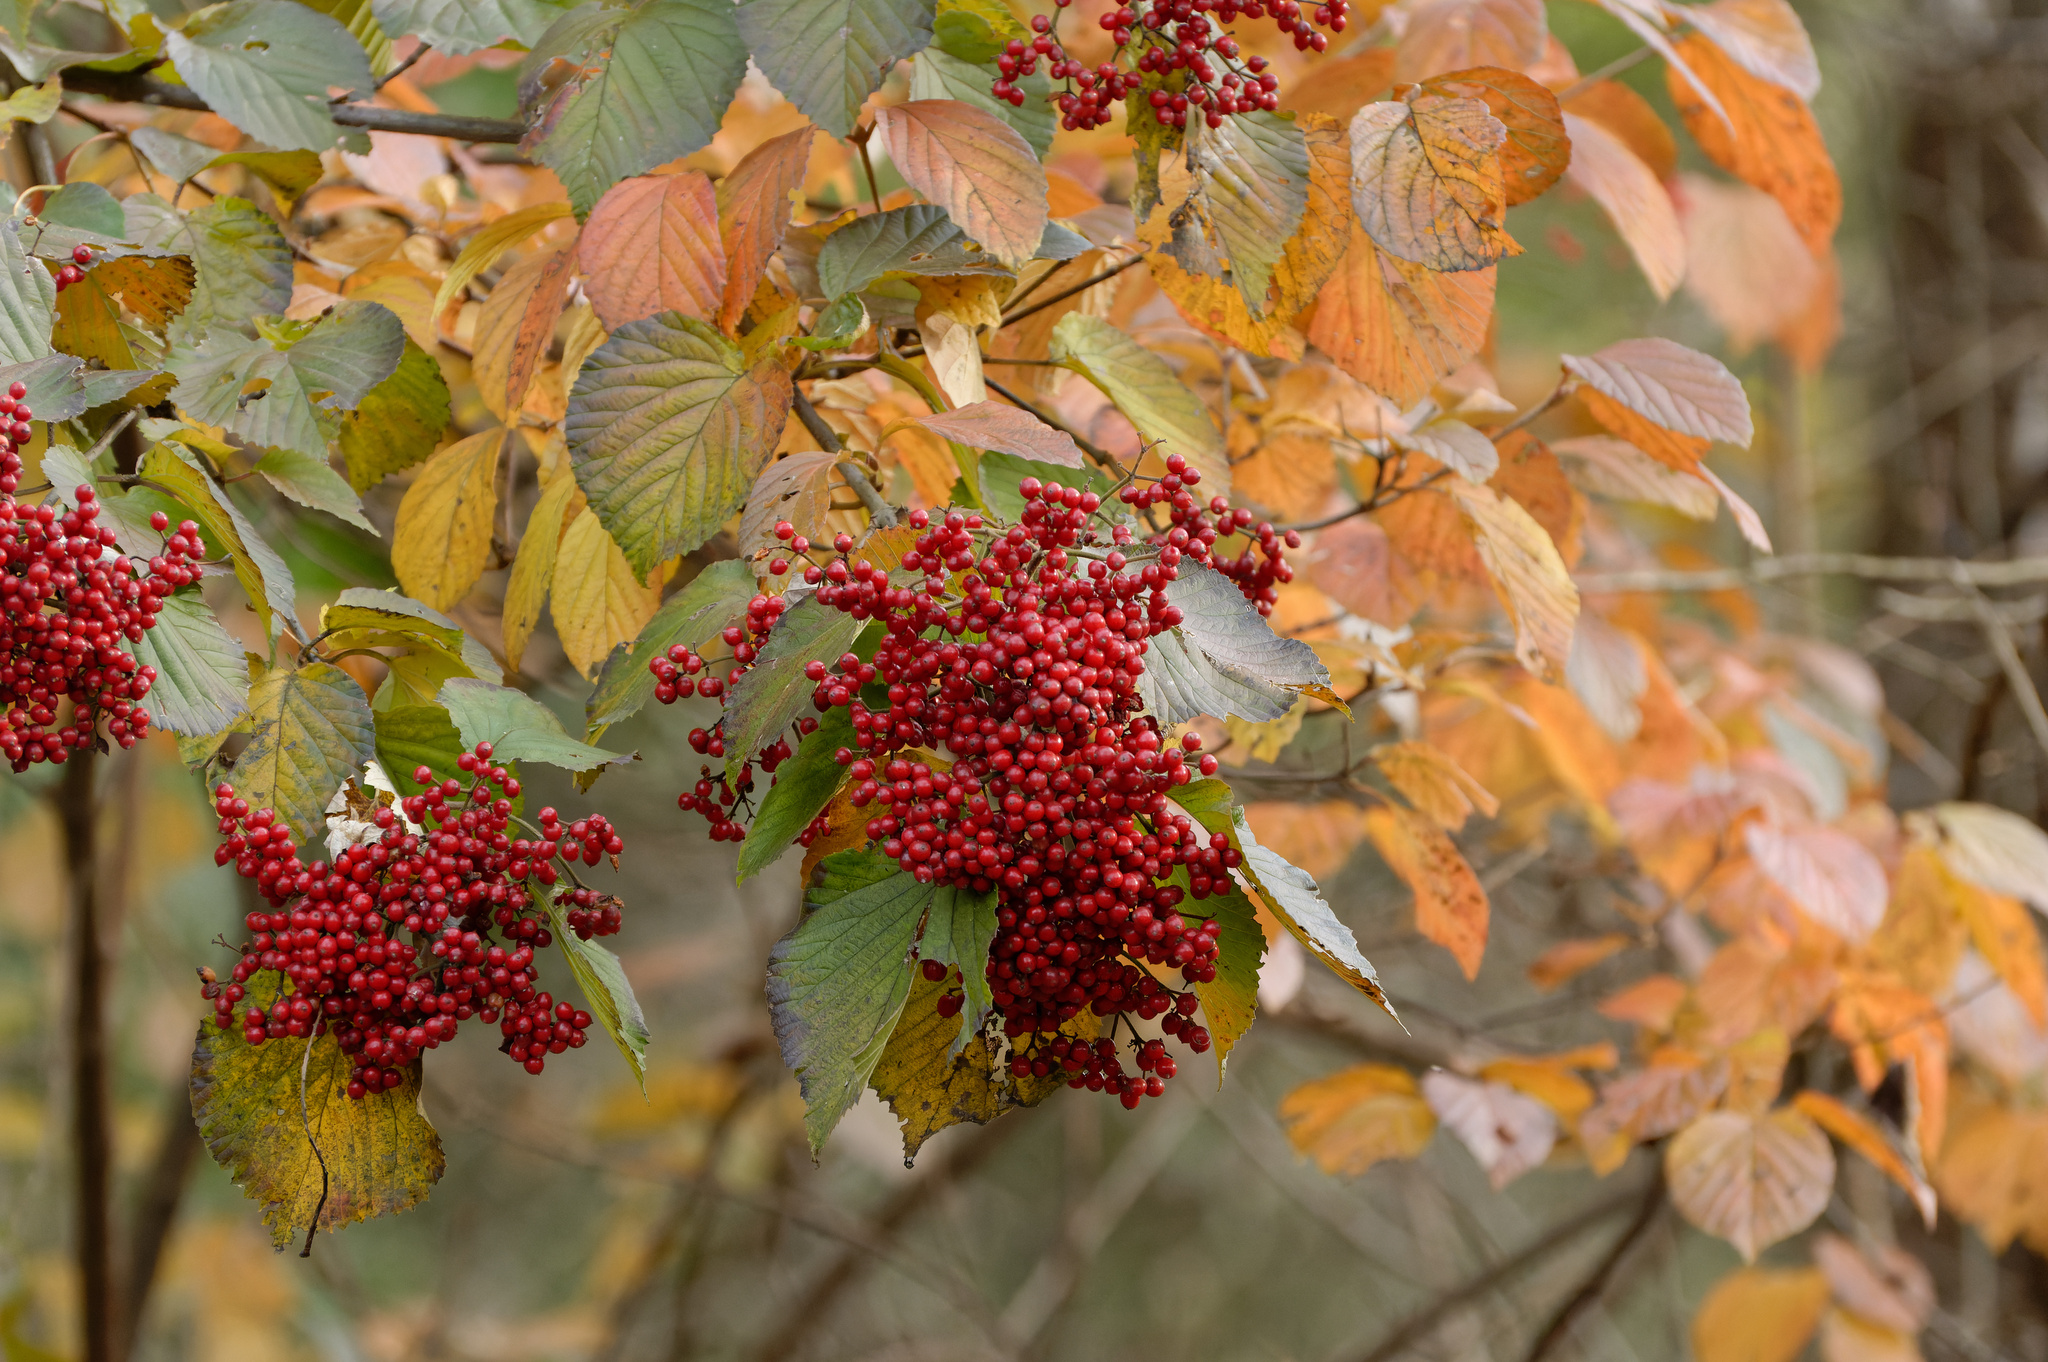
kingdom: Plantae
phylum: Tracheophyta
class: Magnoliopsida
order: Dipsacales
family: Viburnaceae
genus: Viburnum
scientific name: Viburnum dilatatum
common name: Linden arrowwood
